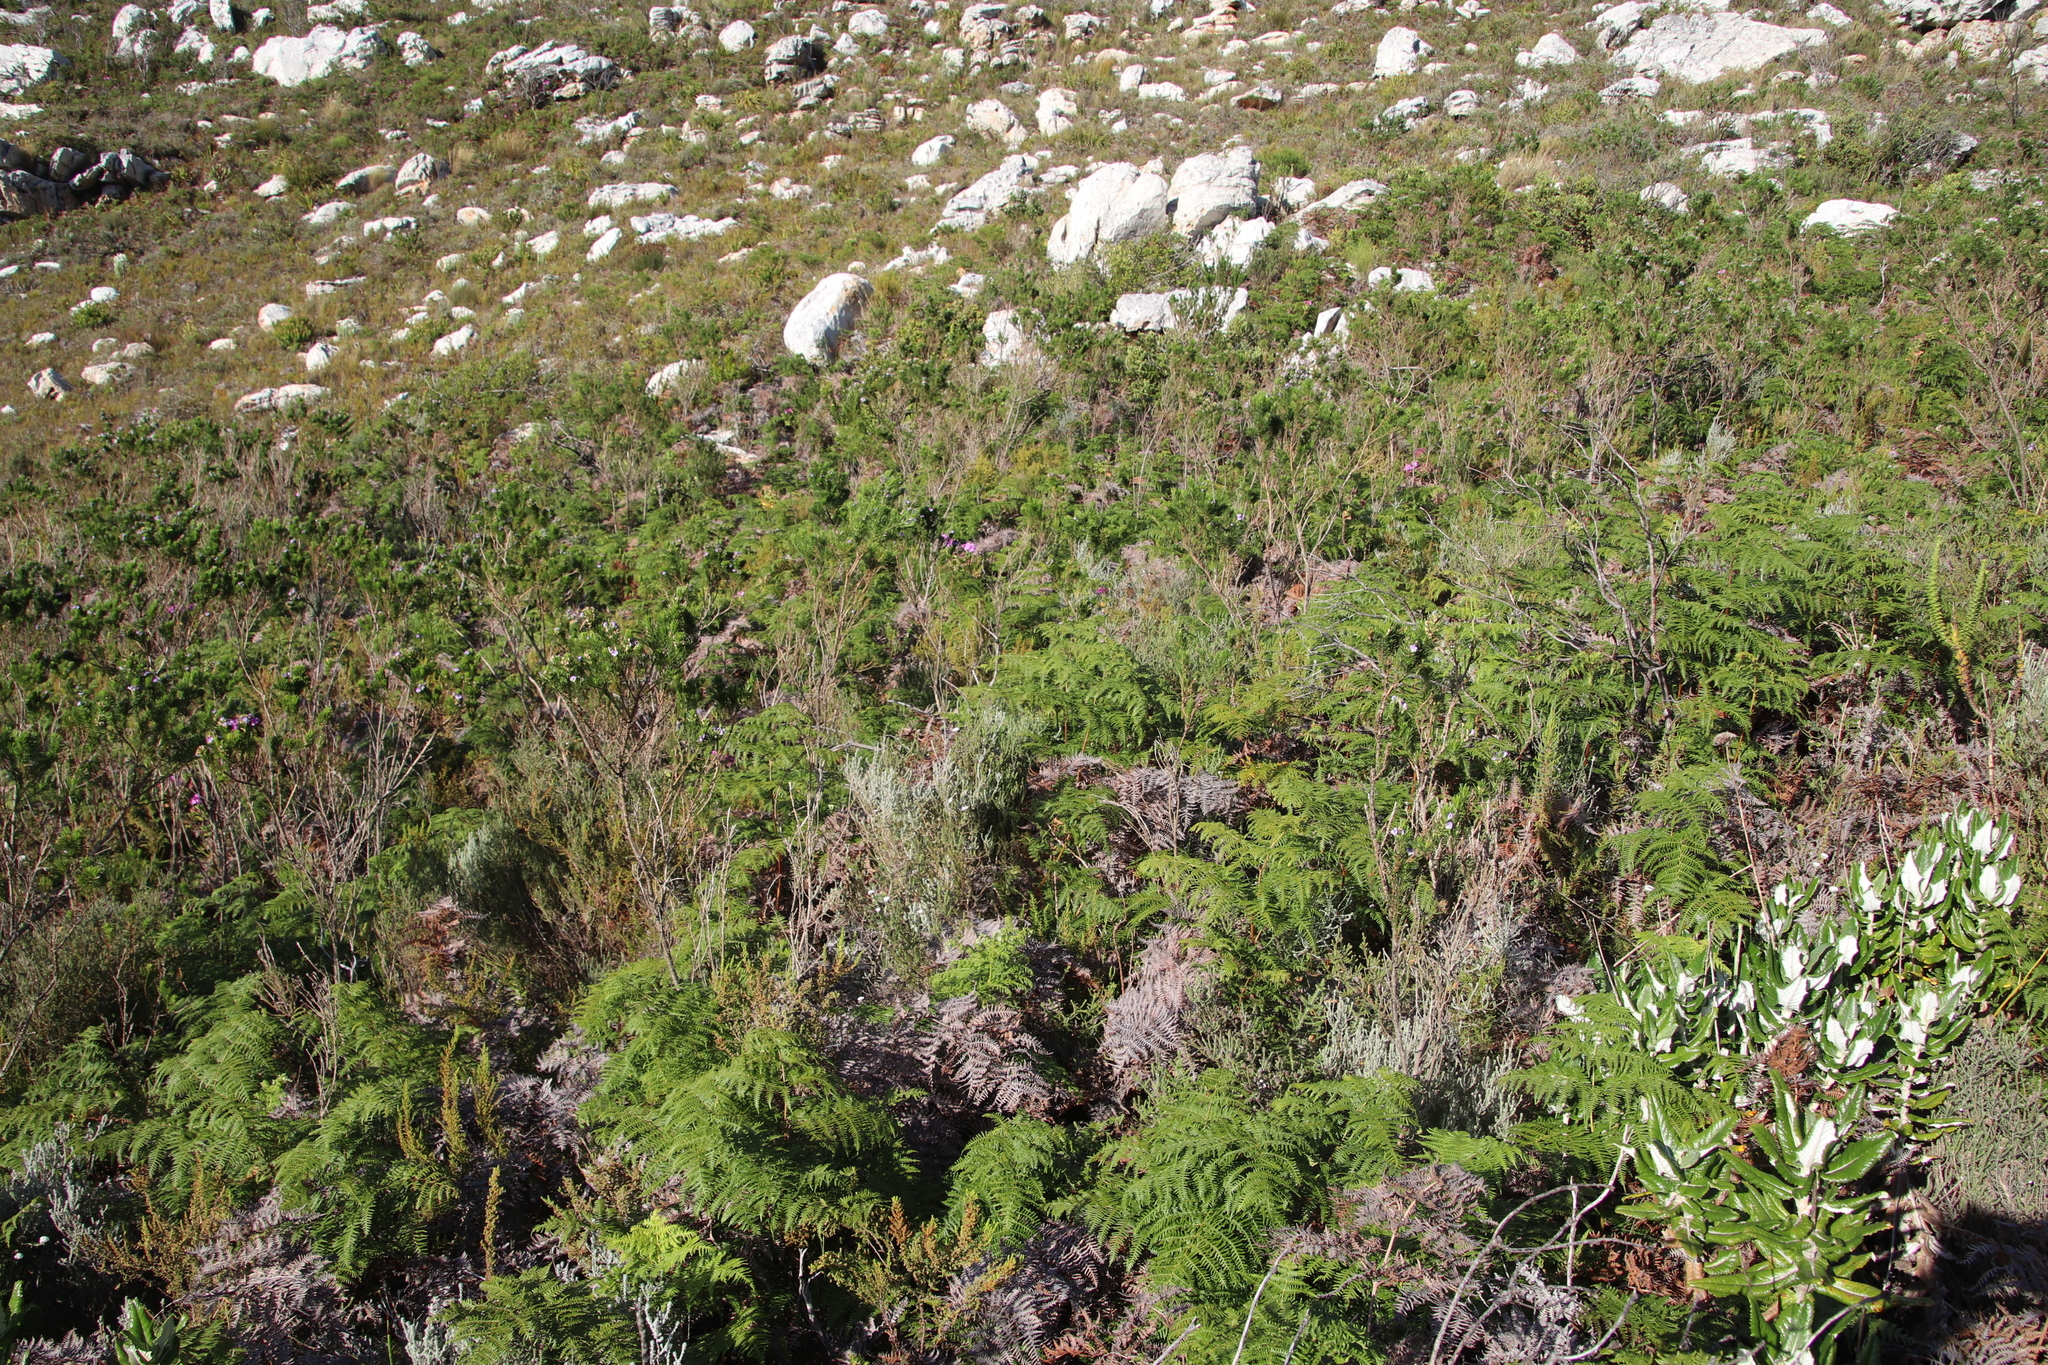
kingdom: Plantae
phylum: Tracheophyta
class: Polypodiopsida
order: Polypodiales
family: Dennstaedtiaceae
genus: Pteridium
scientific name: Pteridium aquilinum
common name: Bracken
